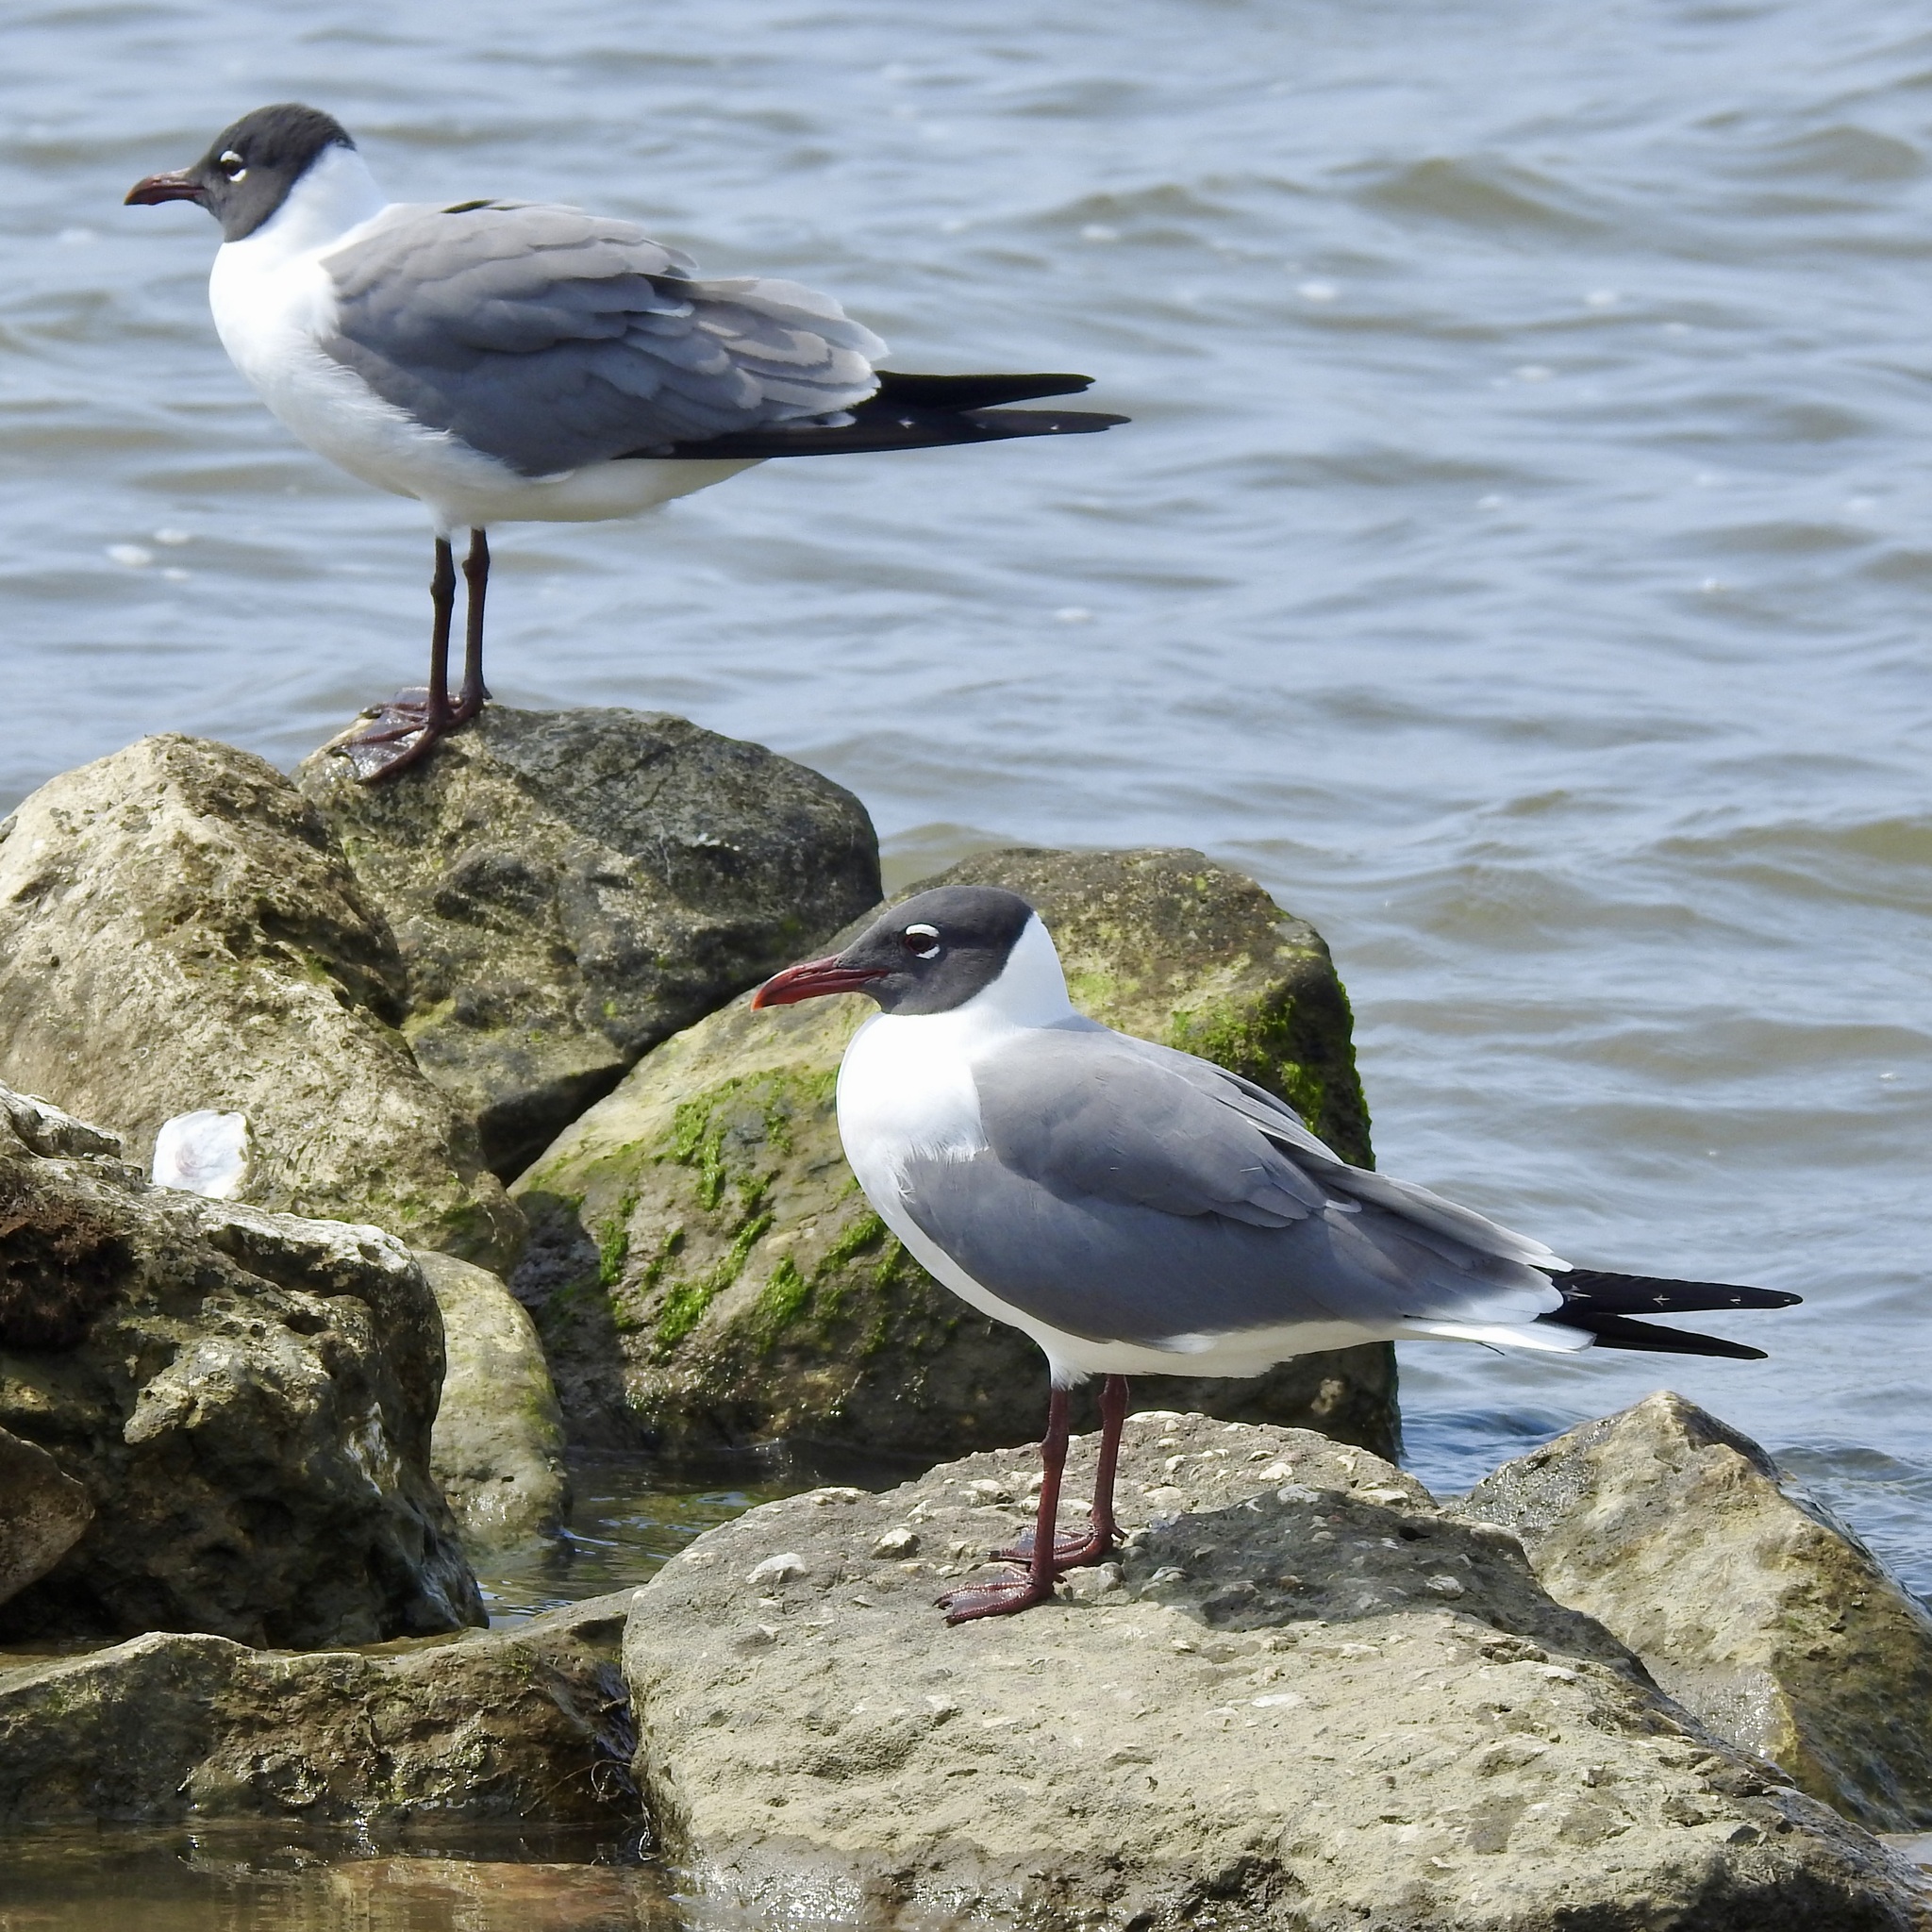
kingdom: Animalia
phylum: Chordata
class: Aves
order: Charadriiformes
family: Laridae
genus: Leucophaeus
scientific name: Leucophaeus atricilla
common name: Laughing gull
